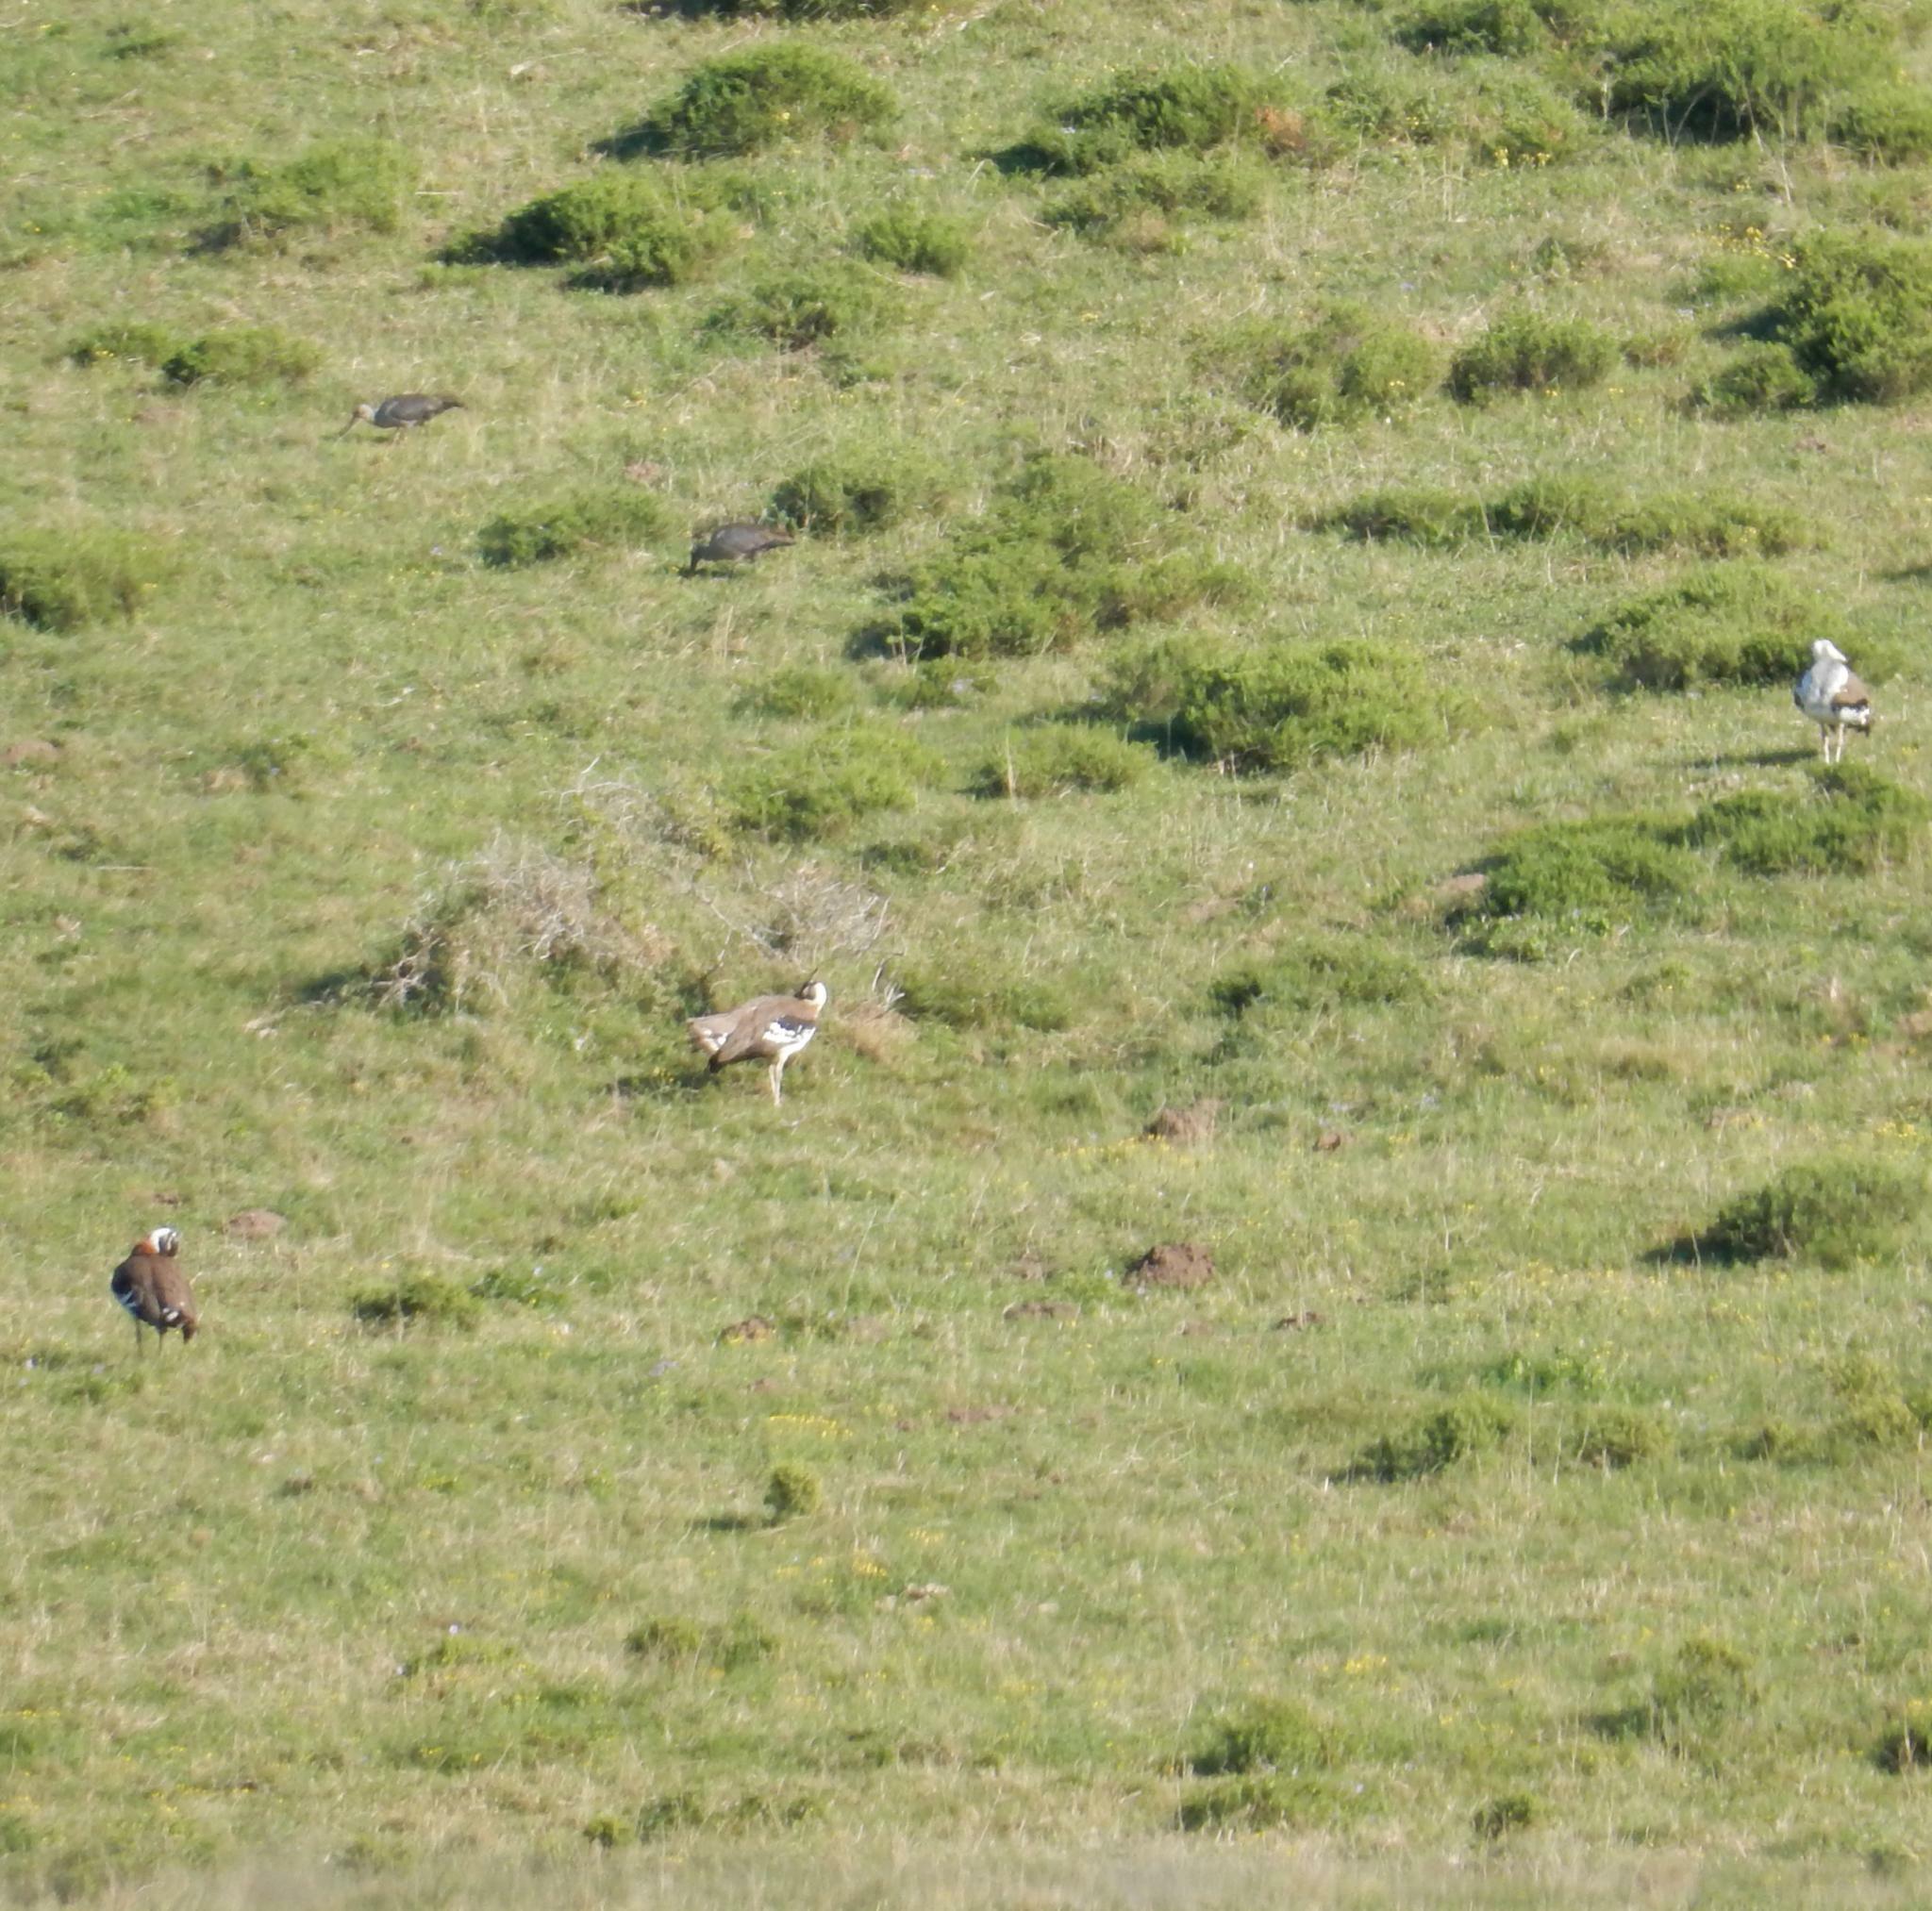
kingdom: Animalia
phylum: Chordata
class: Aves
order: Otidiformes
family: Otididae
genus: Neotis
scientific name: Neotis denhami
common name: Denham's bustard
